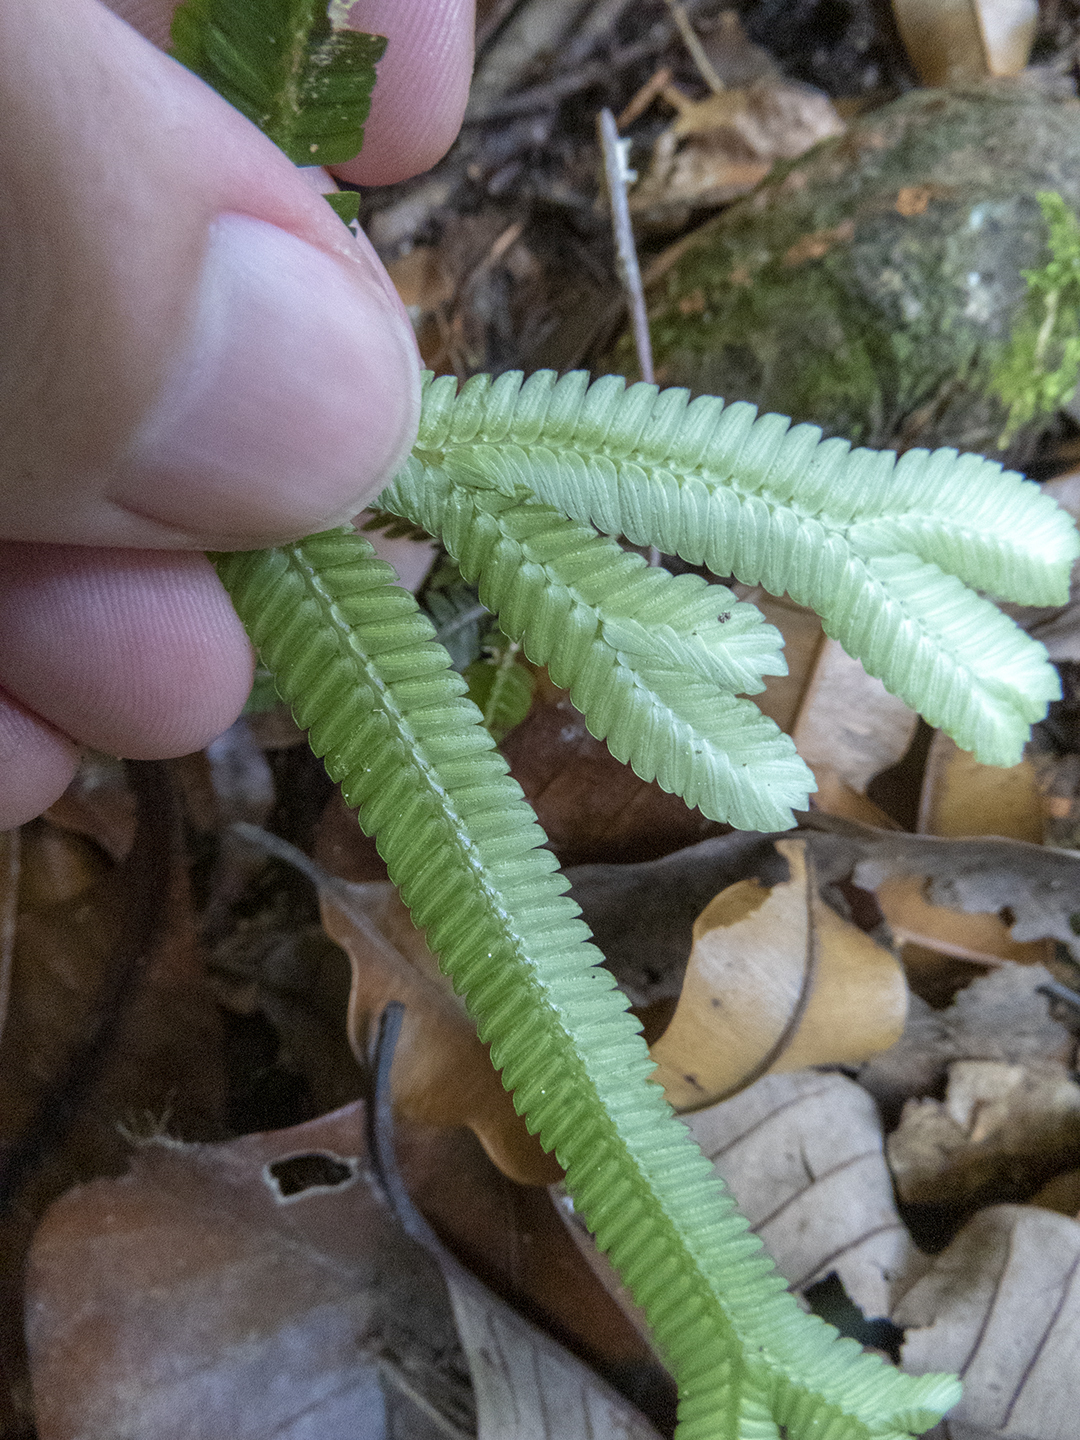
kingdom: Plantae
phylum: Tracheophyta
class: Lycopodiopsida
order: Selaginellales
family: Selaginellaceae
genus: Selaginella
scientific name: Selaginella intermedia
